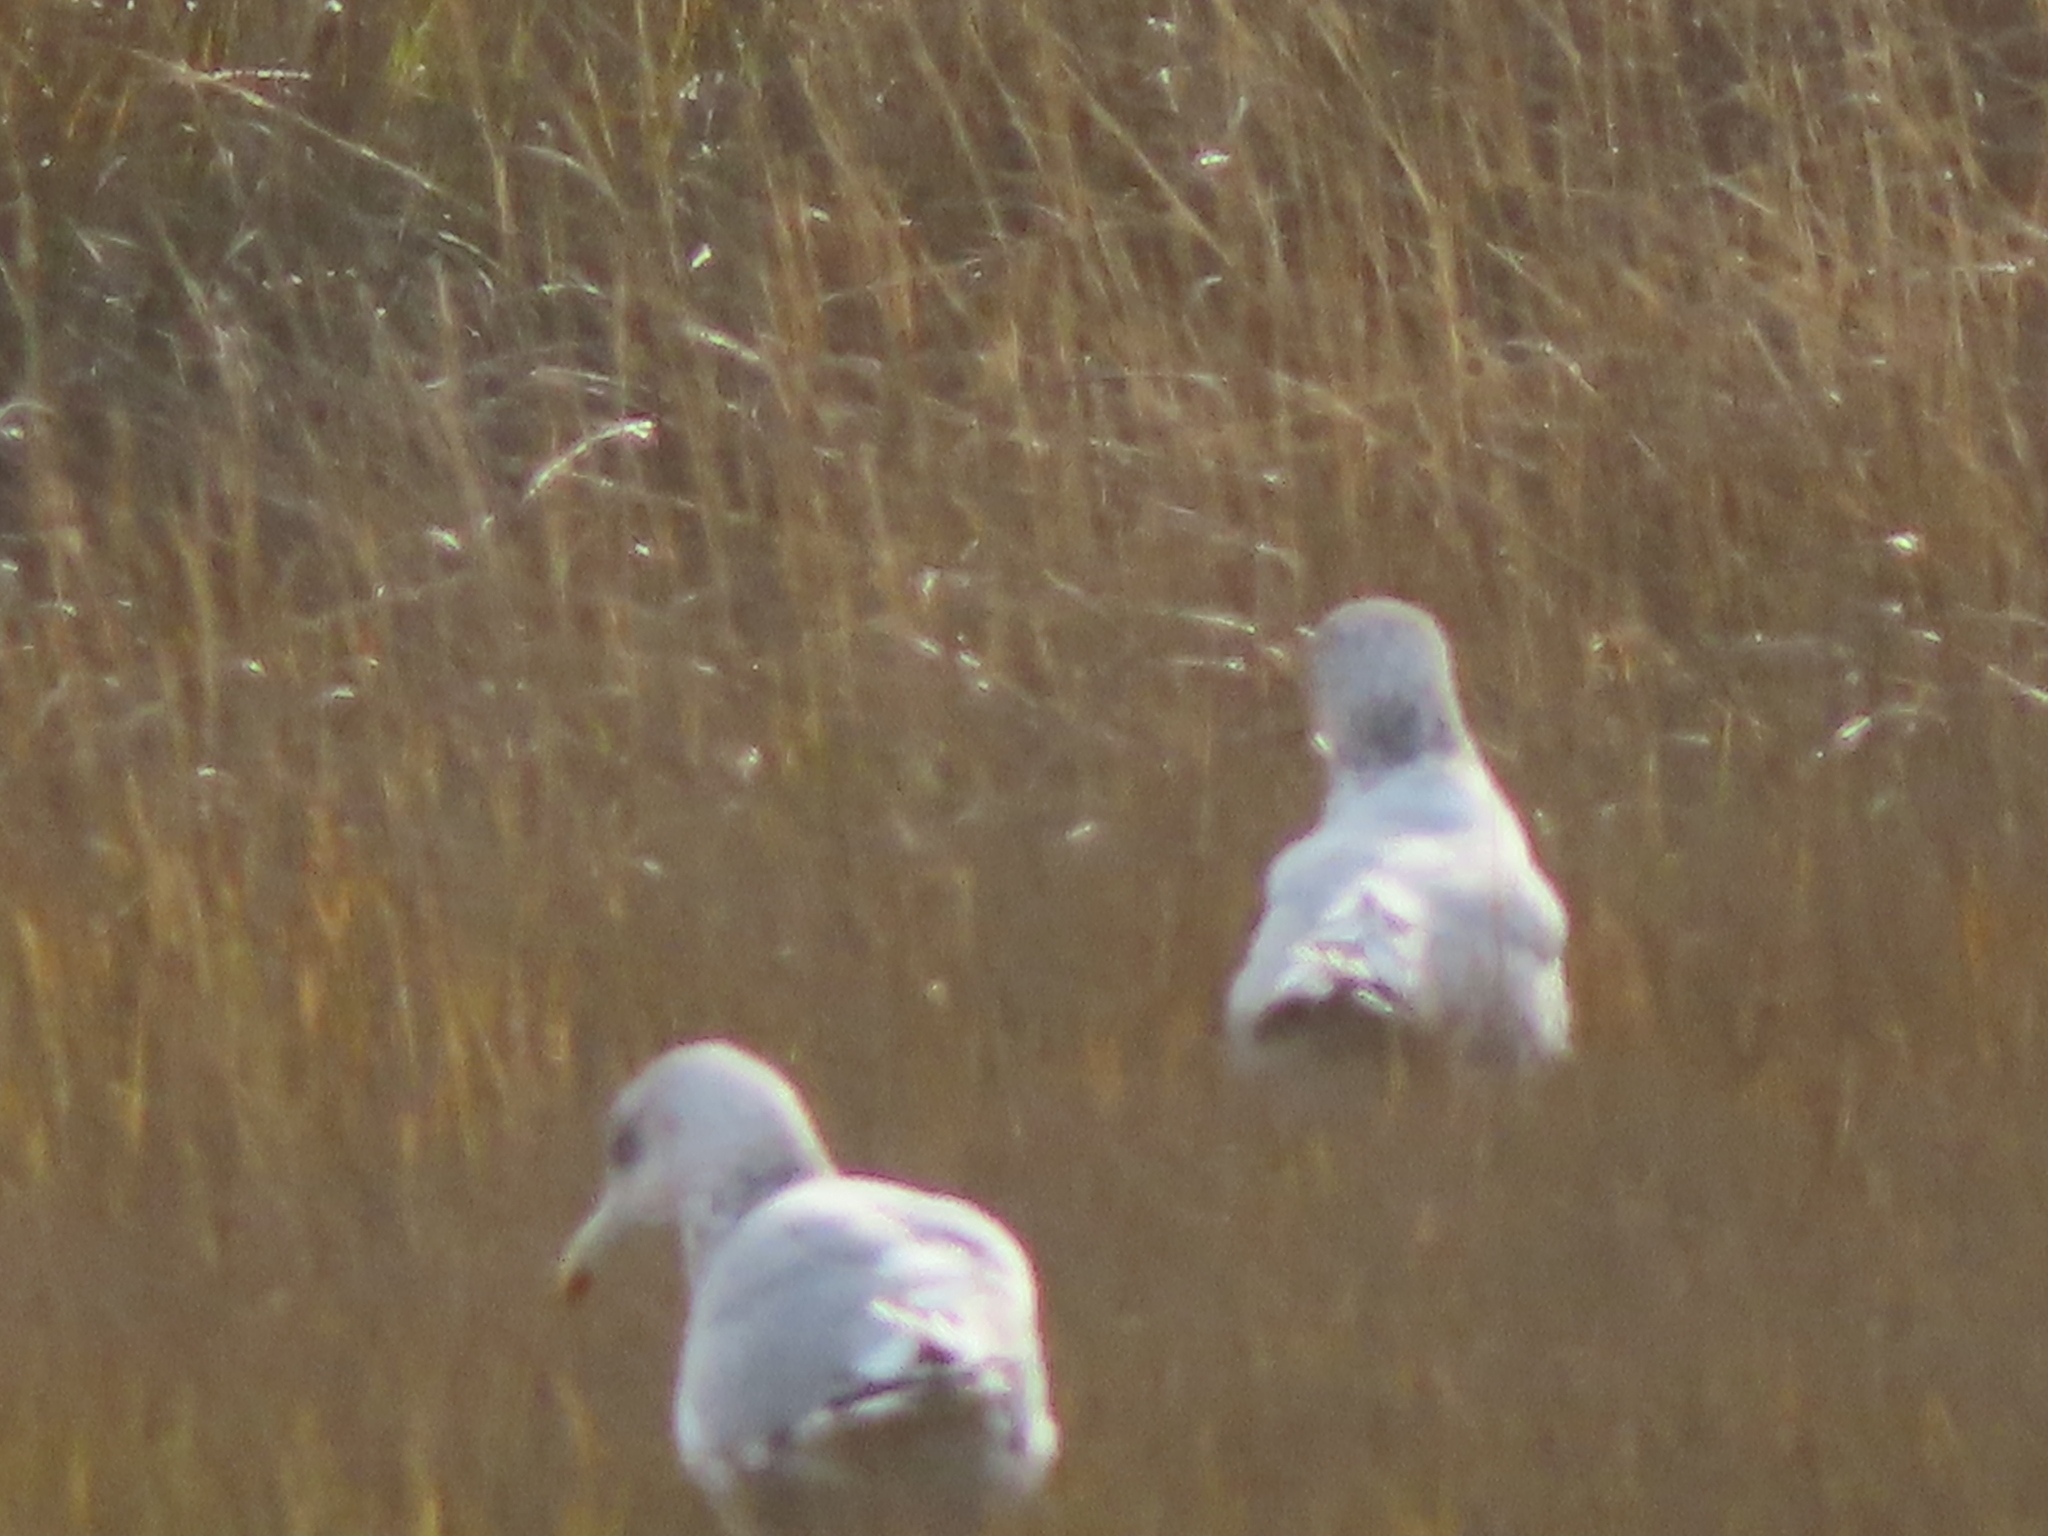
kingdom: Animalia
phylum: Chordata
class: Aves
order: Charadriiformes
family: Laridae
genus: Larus
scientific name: Larus argentatus
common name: Herring gull
